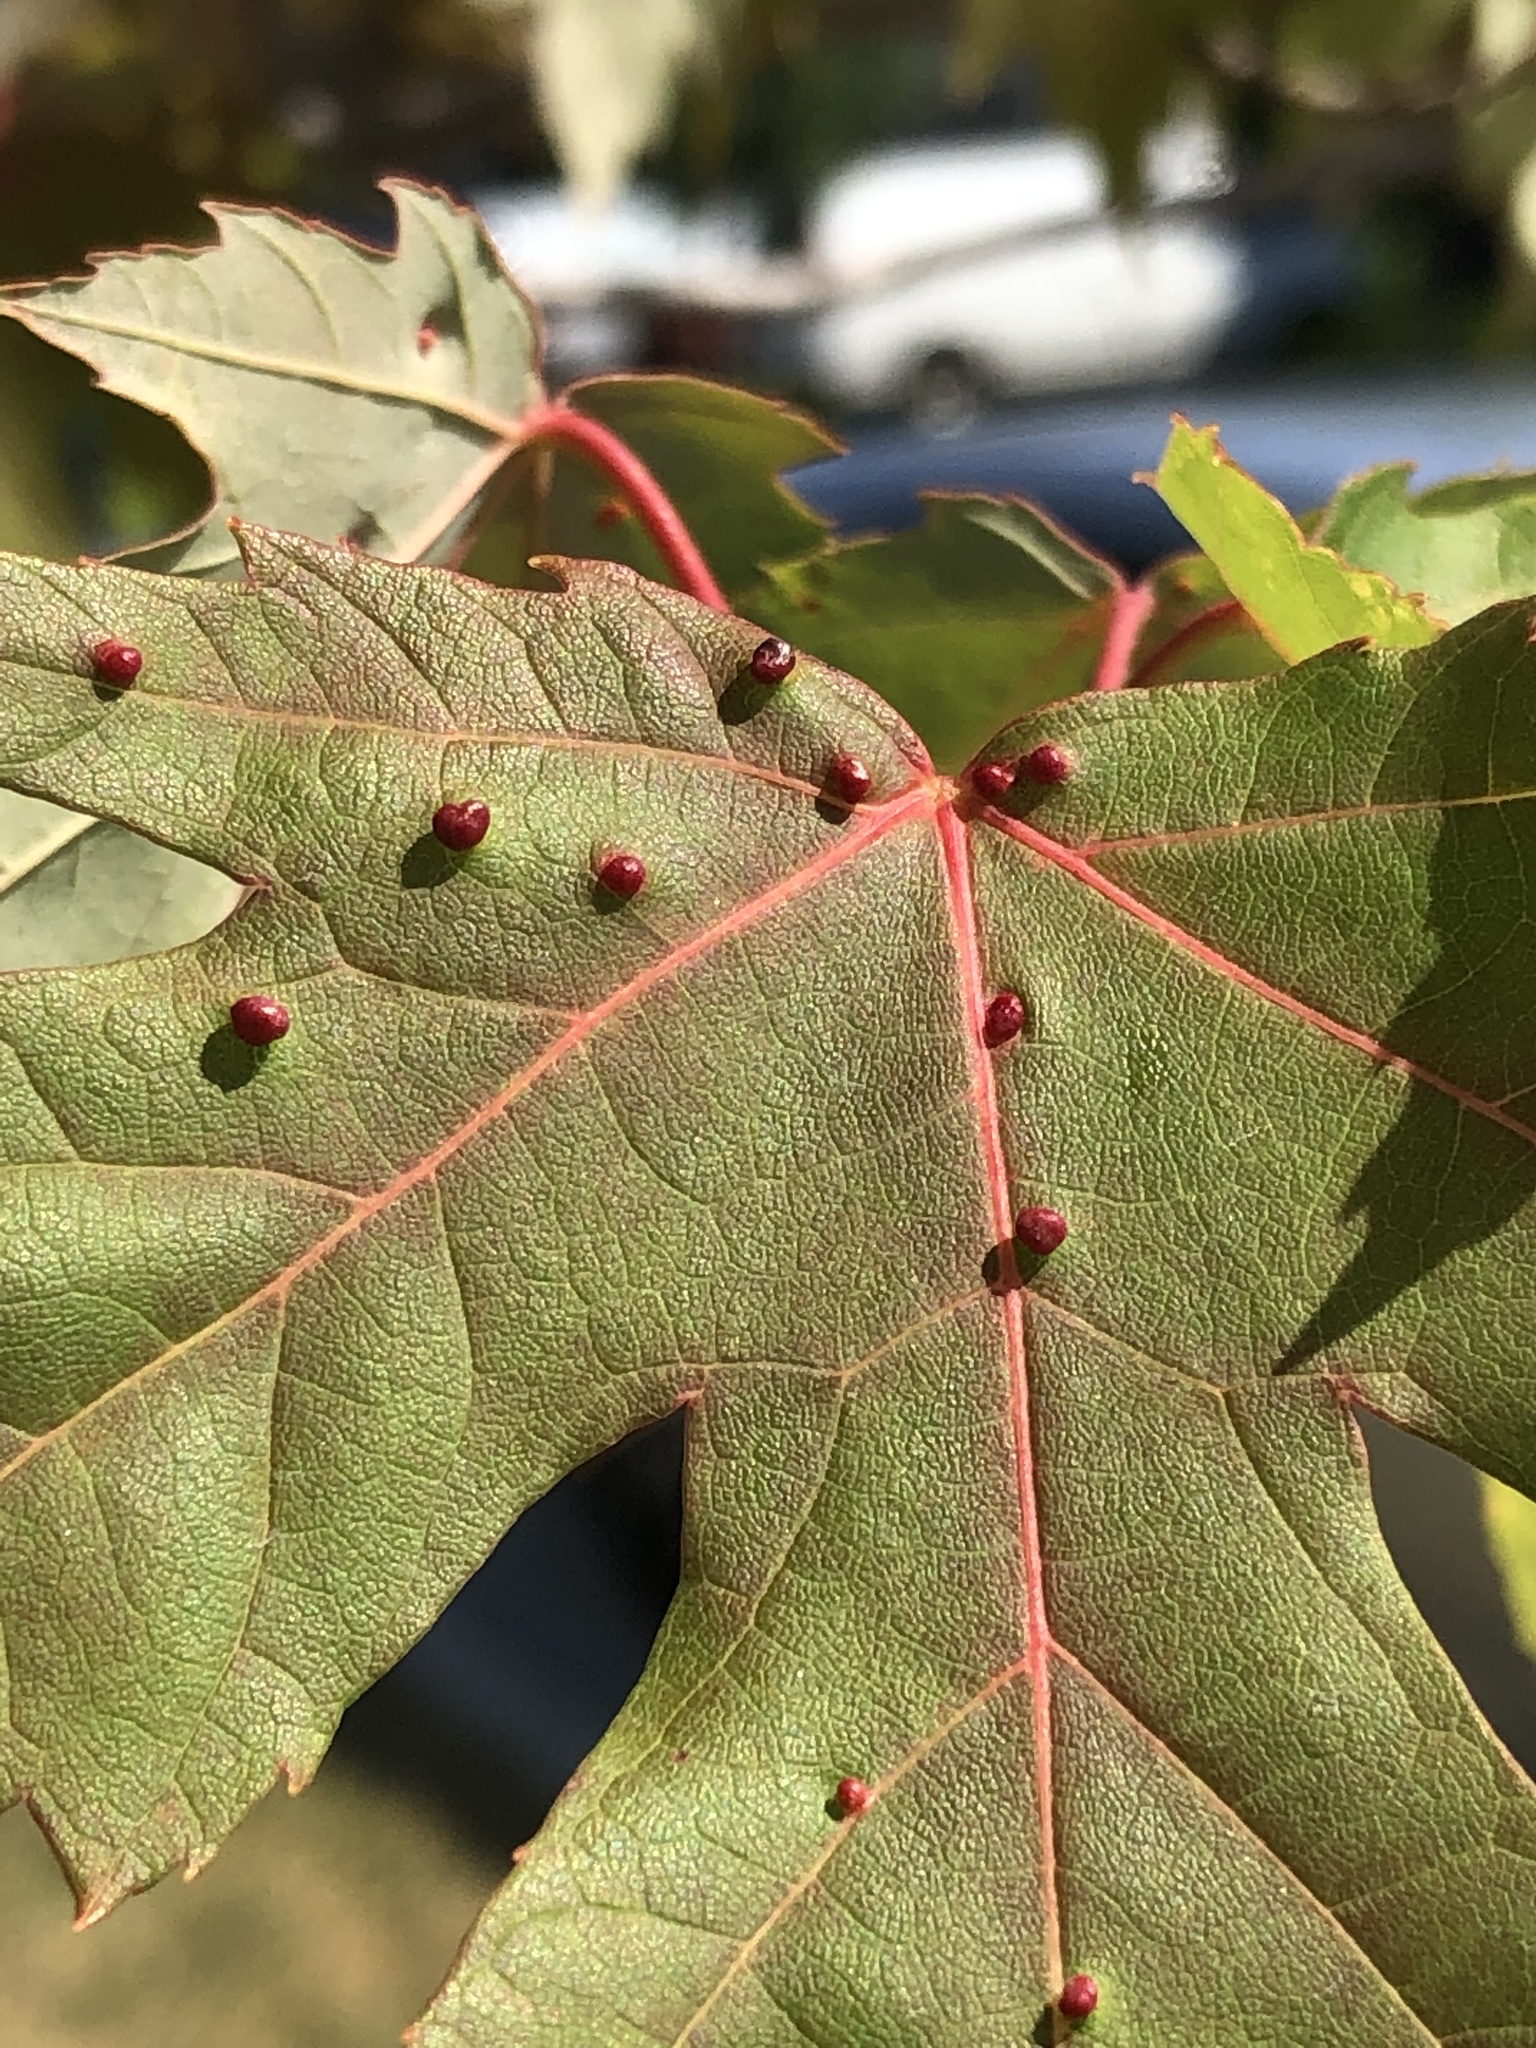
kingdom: Animalia
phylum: Arthropoda
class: Arachnida
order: Trombidiformes
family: Eriophyidae
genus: Vasates
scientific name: Vasates quadripedes
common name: Maple bladder gall mite
